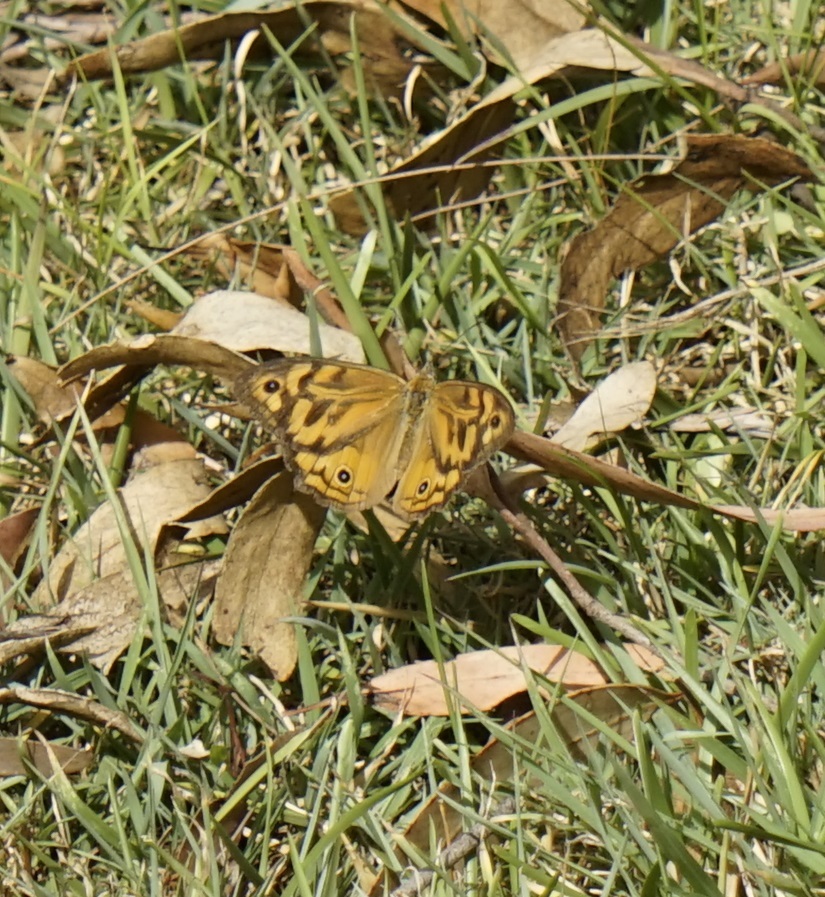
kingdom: Animalia
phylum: Arthropoda
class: Insecta
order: Lepidoptera
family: Nymphalidae
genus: Heteronympha
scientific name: Heteronympha merope
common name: Common brown
